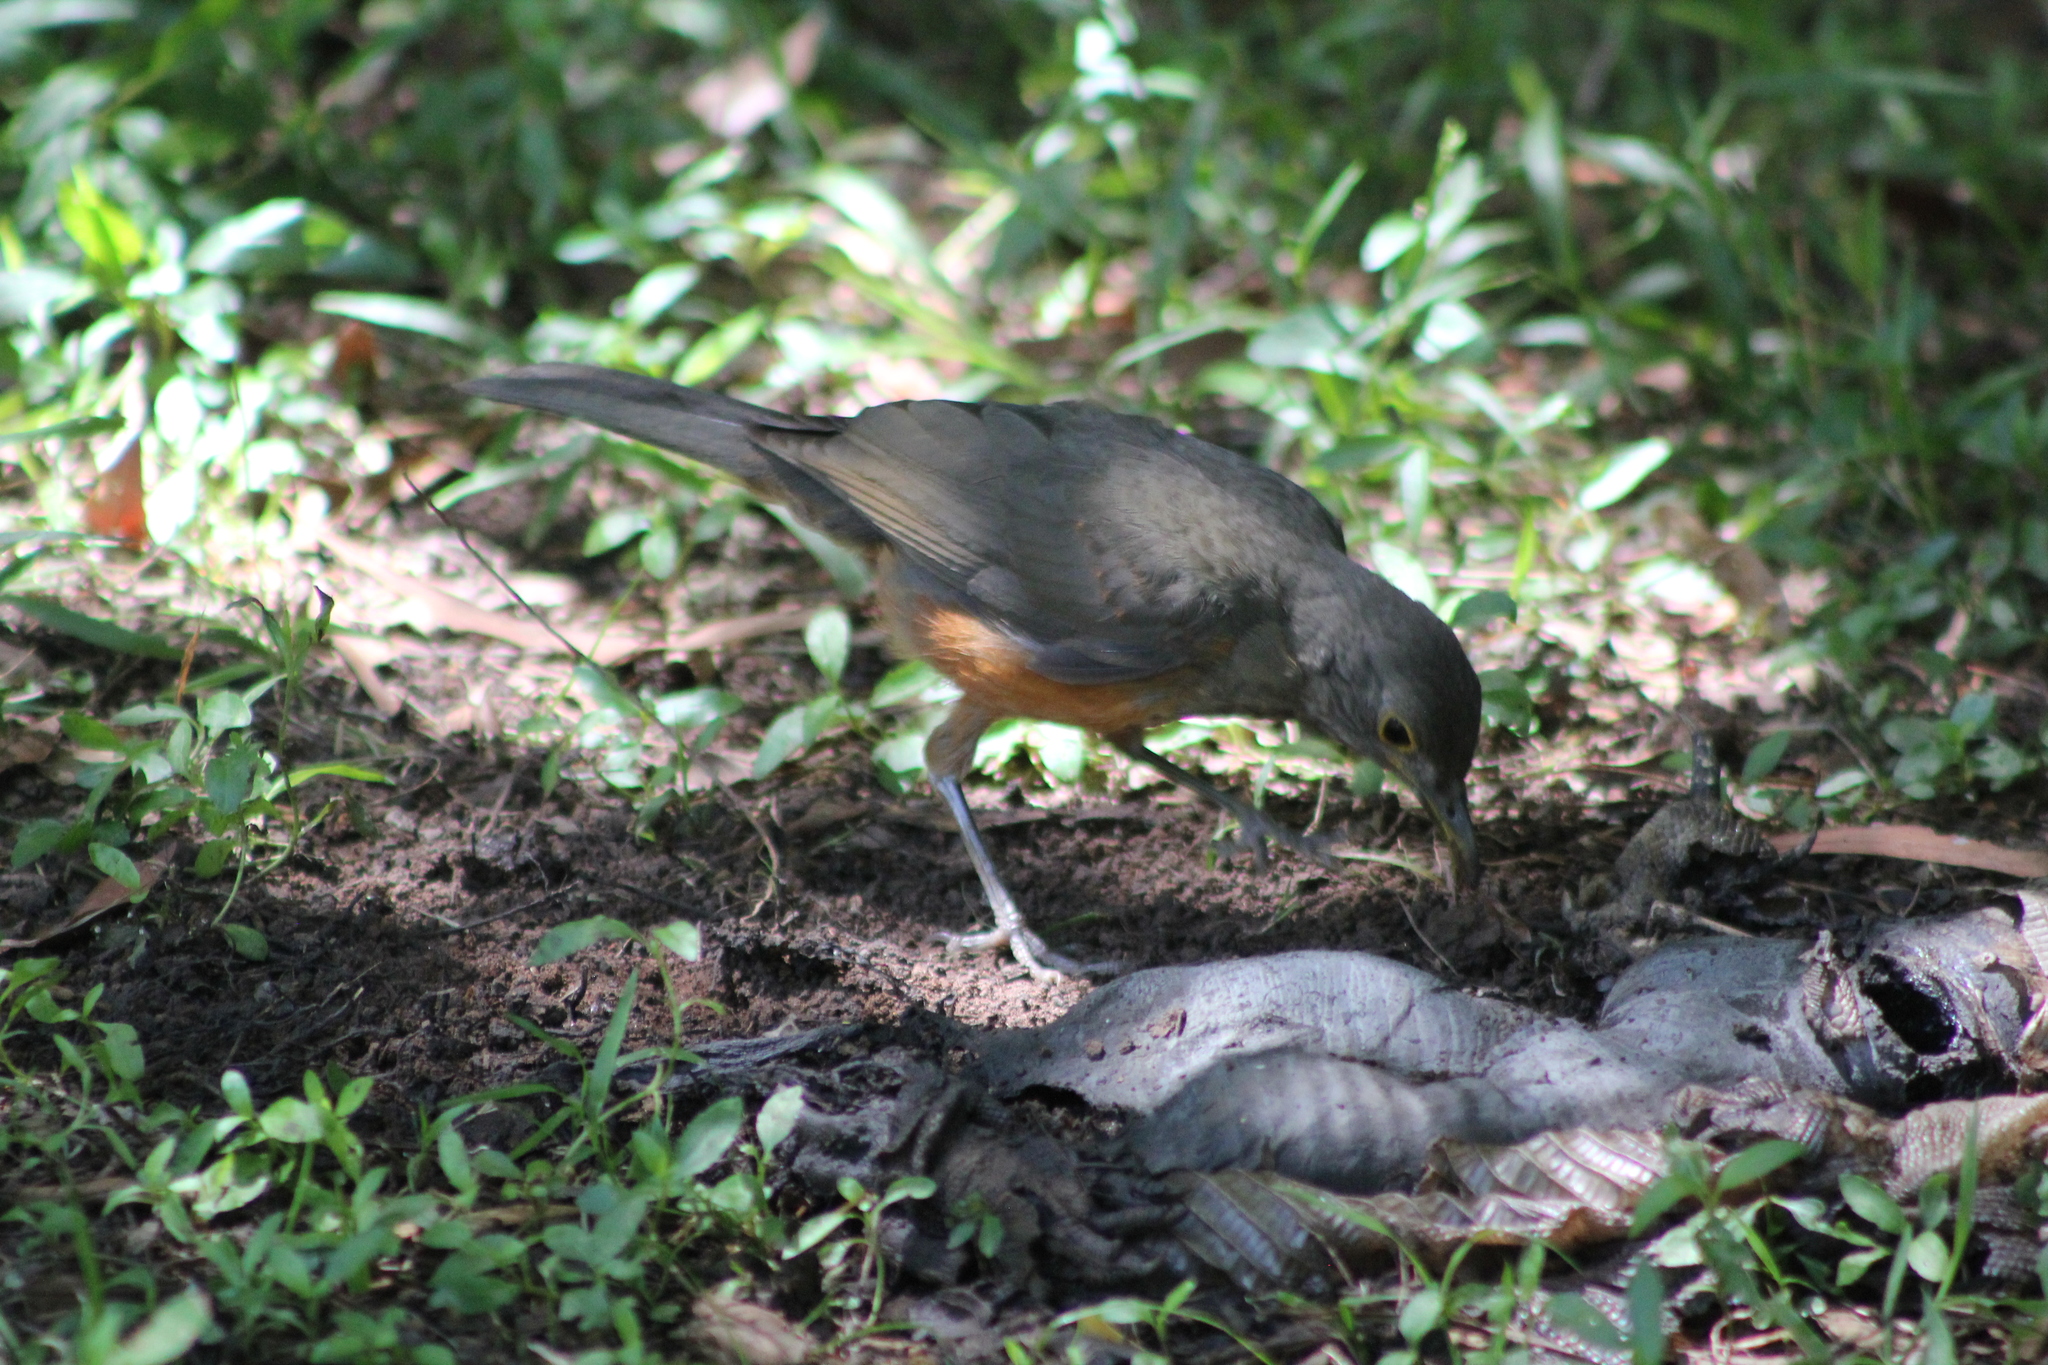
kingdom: Animalia
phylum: Chordata
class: Aves
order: Passeriformes
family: Turdidae
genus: Turdus
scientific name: Turdus rufiventris
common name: Rufous-bellied thrush
